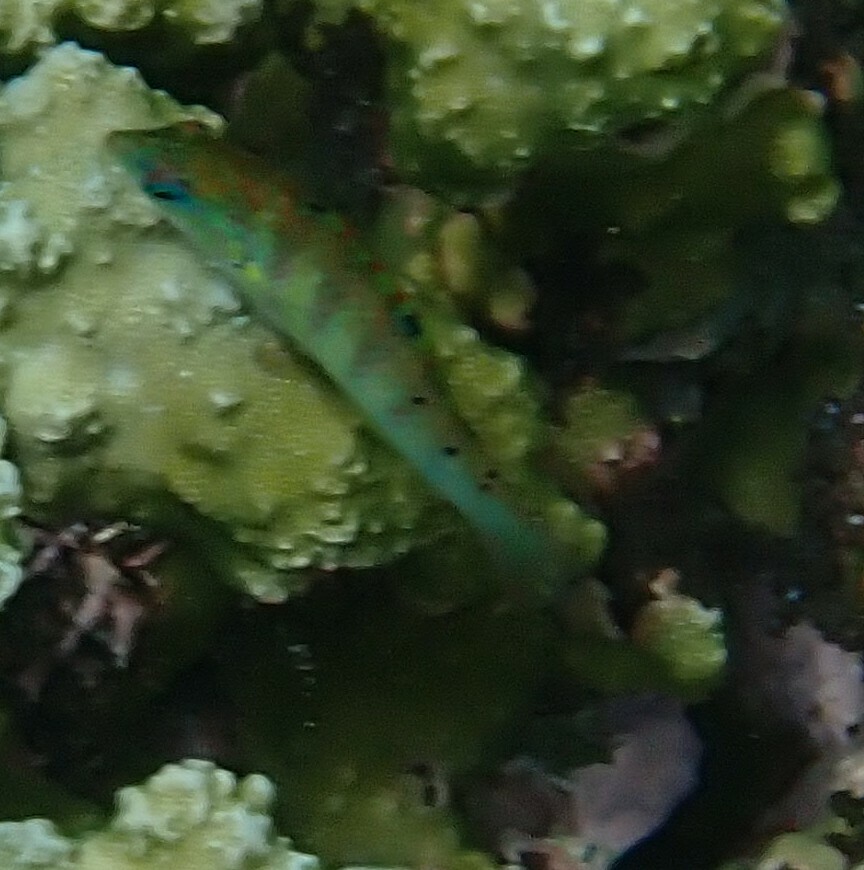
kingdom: Animalia
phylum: Chordata
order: Perciformes
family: Labridae
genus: Thalassoma
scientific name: Thalassoma hardwicke
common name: Sixbar wrasse
